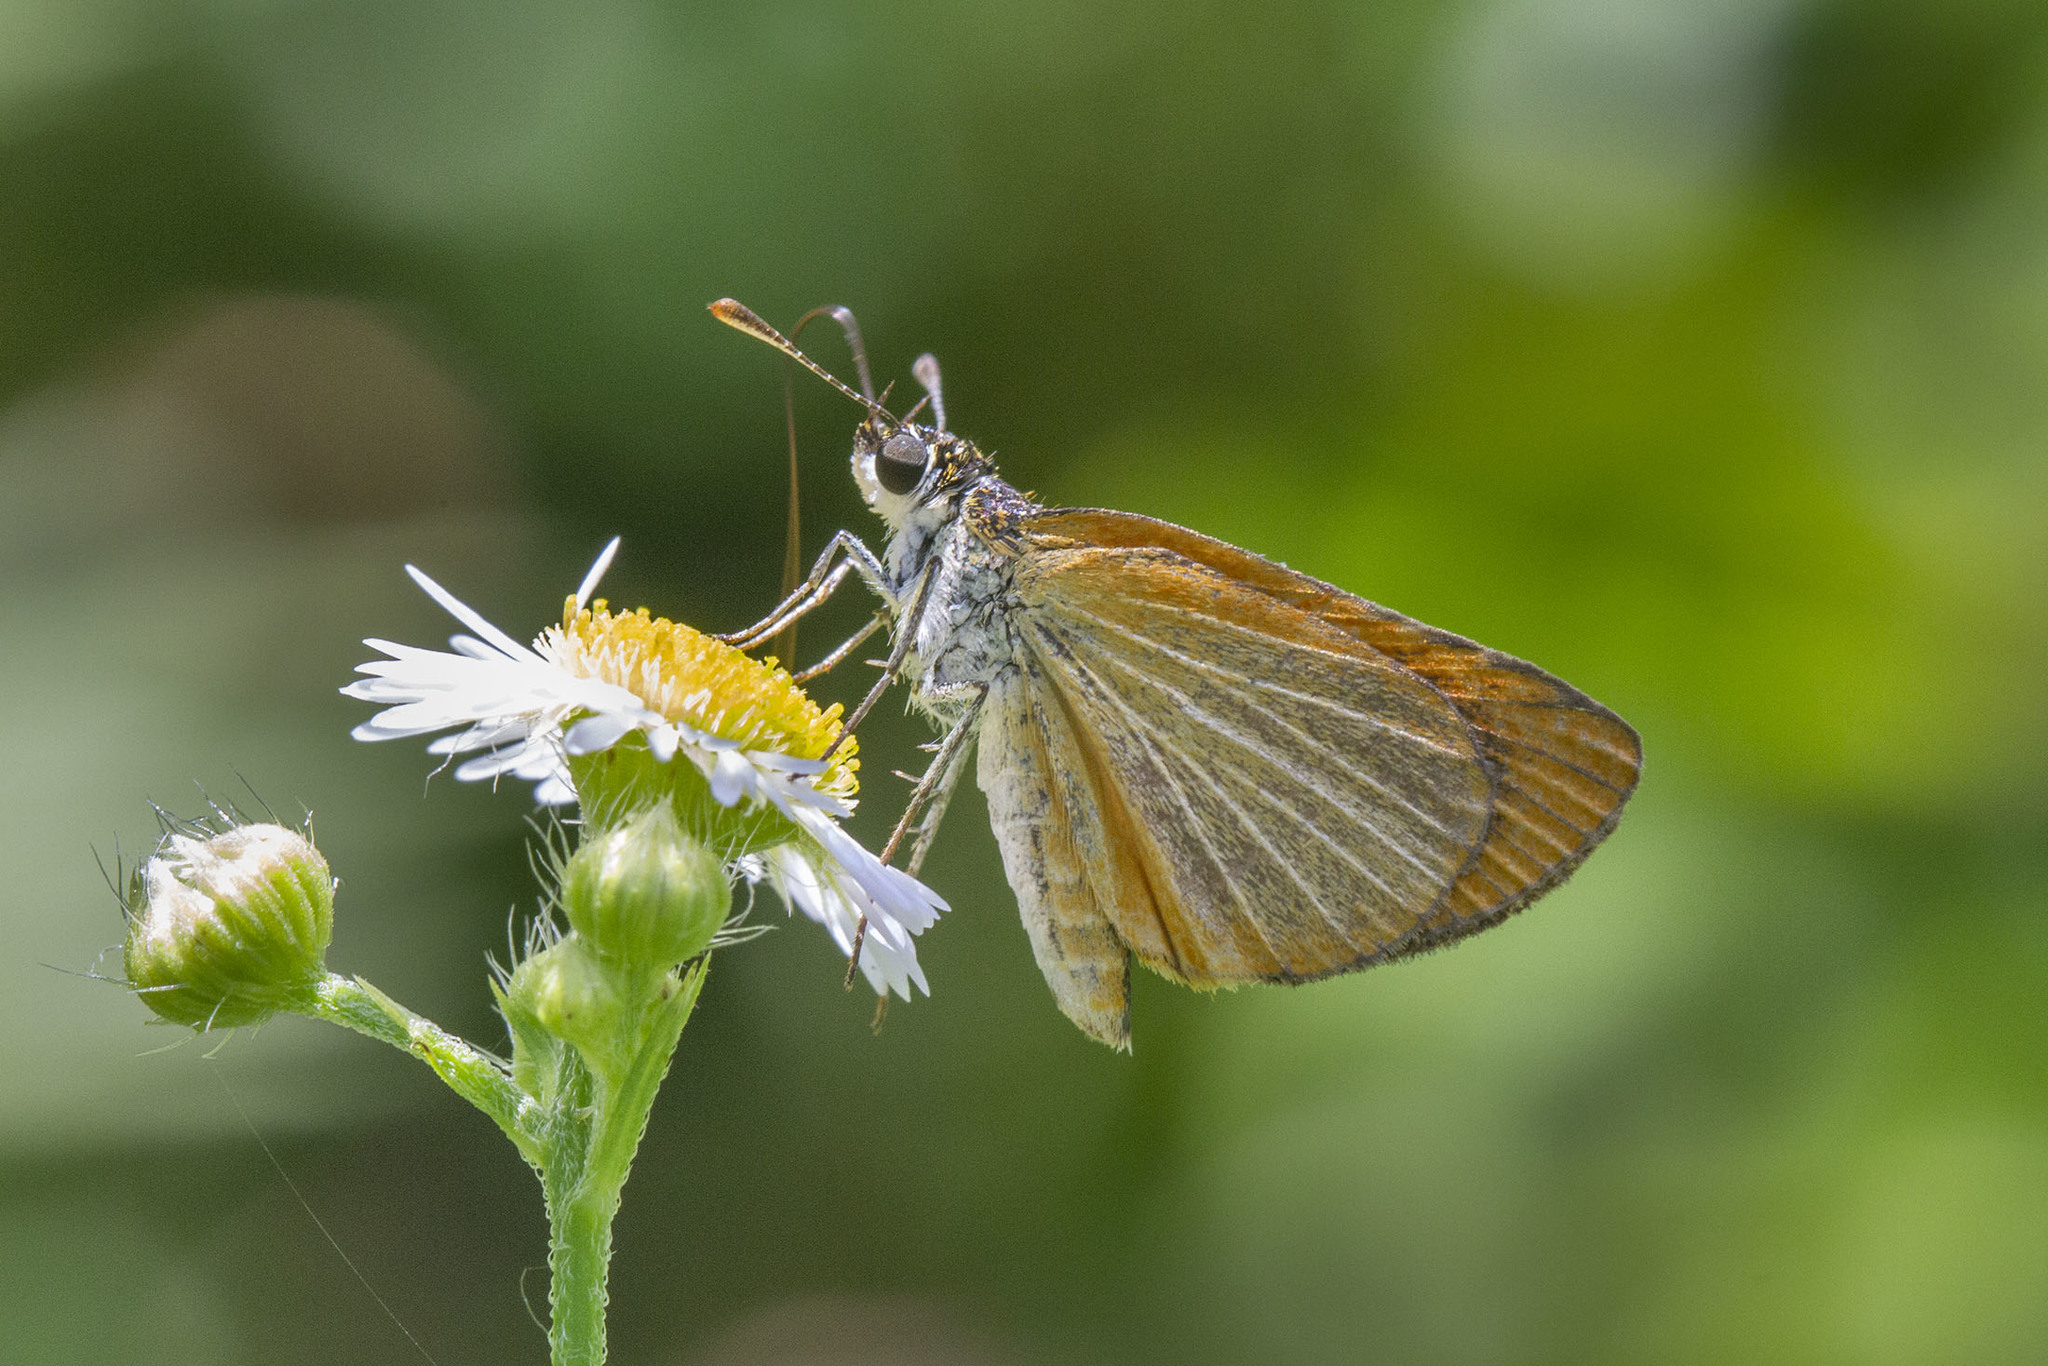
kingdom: Animalia
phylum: Arthropoda
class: Insecta
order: Lepidoptera
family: Hesperiidae
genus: Ancyloxypha
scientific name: Ancyloxypha numitor
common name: Least skipper
